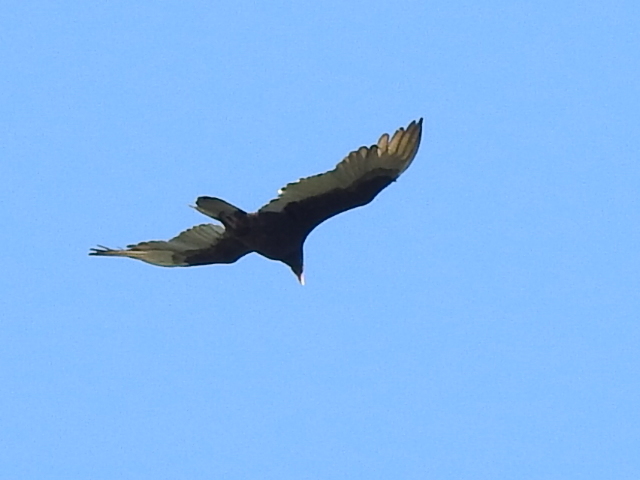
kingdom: Animalia
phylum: Chordata
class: Aves
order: Accipitriformes
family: Cathartidae
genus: Cathartes
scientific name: Cathartes aura
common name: Turkey vulture
